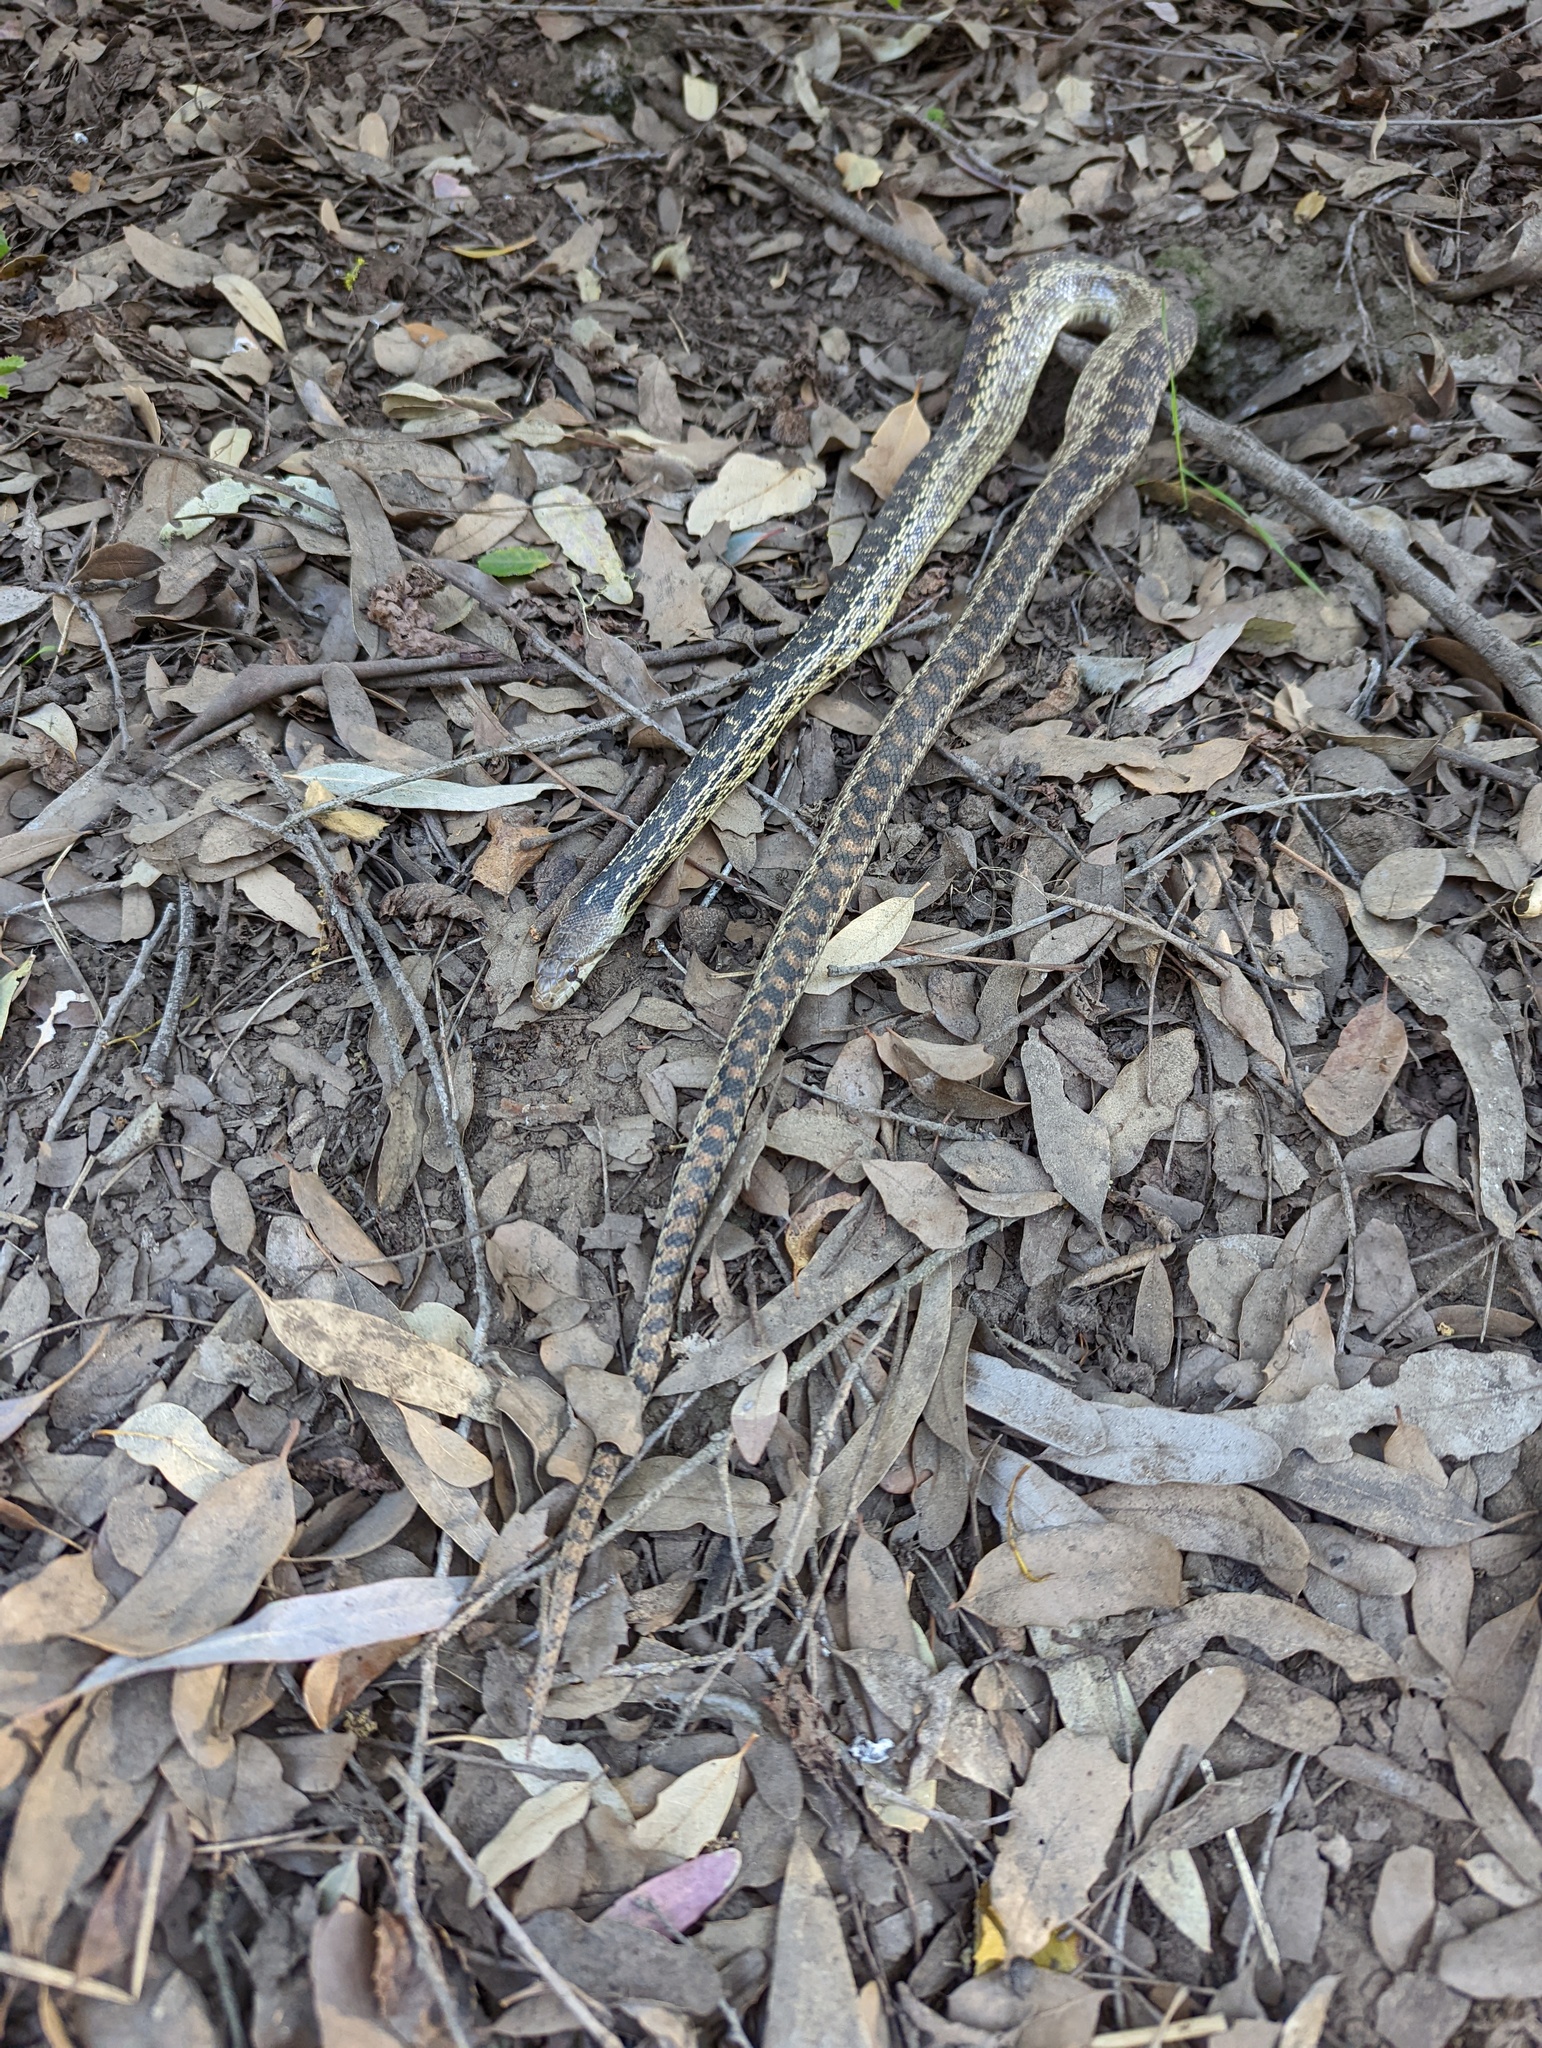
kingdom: Animalia
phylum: Chordata
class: Squamata
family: Colubridae
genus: Pituophis
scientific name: Pituophis catenifer
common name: Gopher snake
